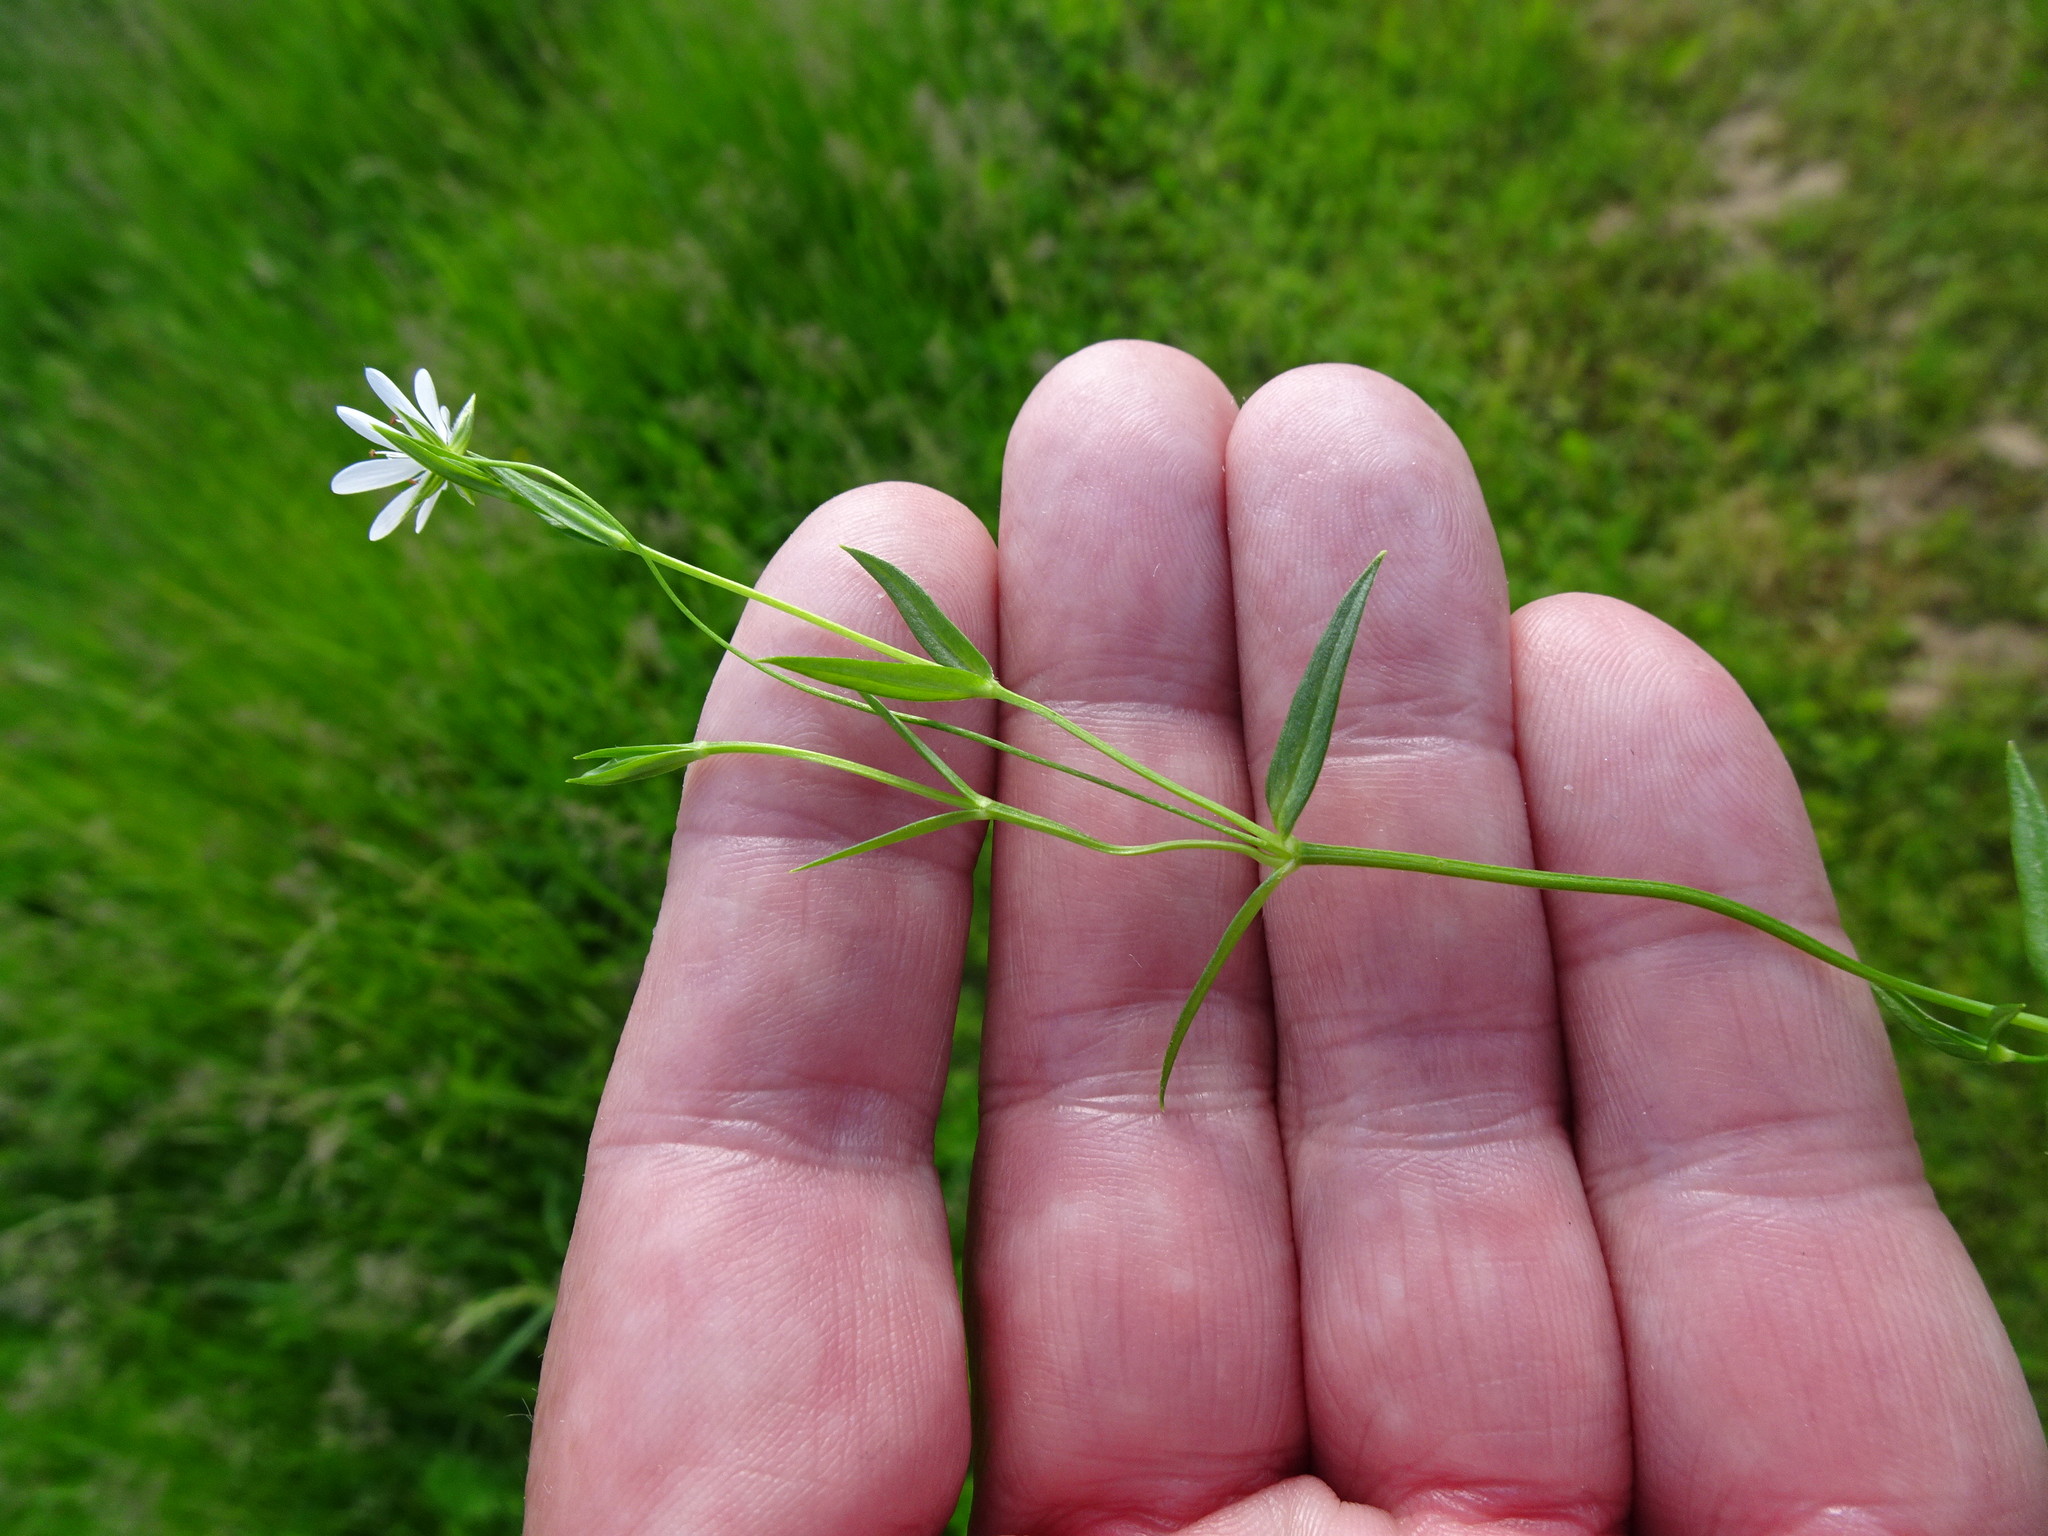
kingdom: Plantae
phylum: Tracheophyta
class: Magnoliopsida
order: Caryophyllales
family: Caryophyllaceae
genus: Stellaria
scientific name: Stellaria graminea
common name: Grass-like starwort
